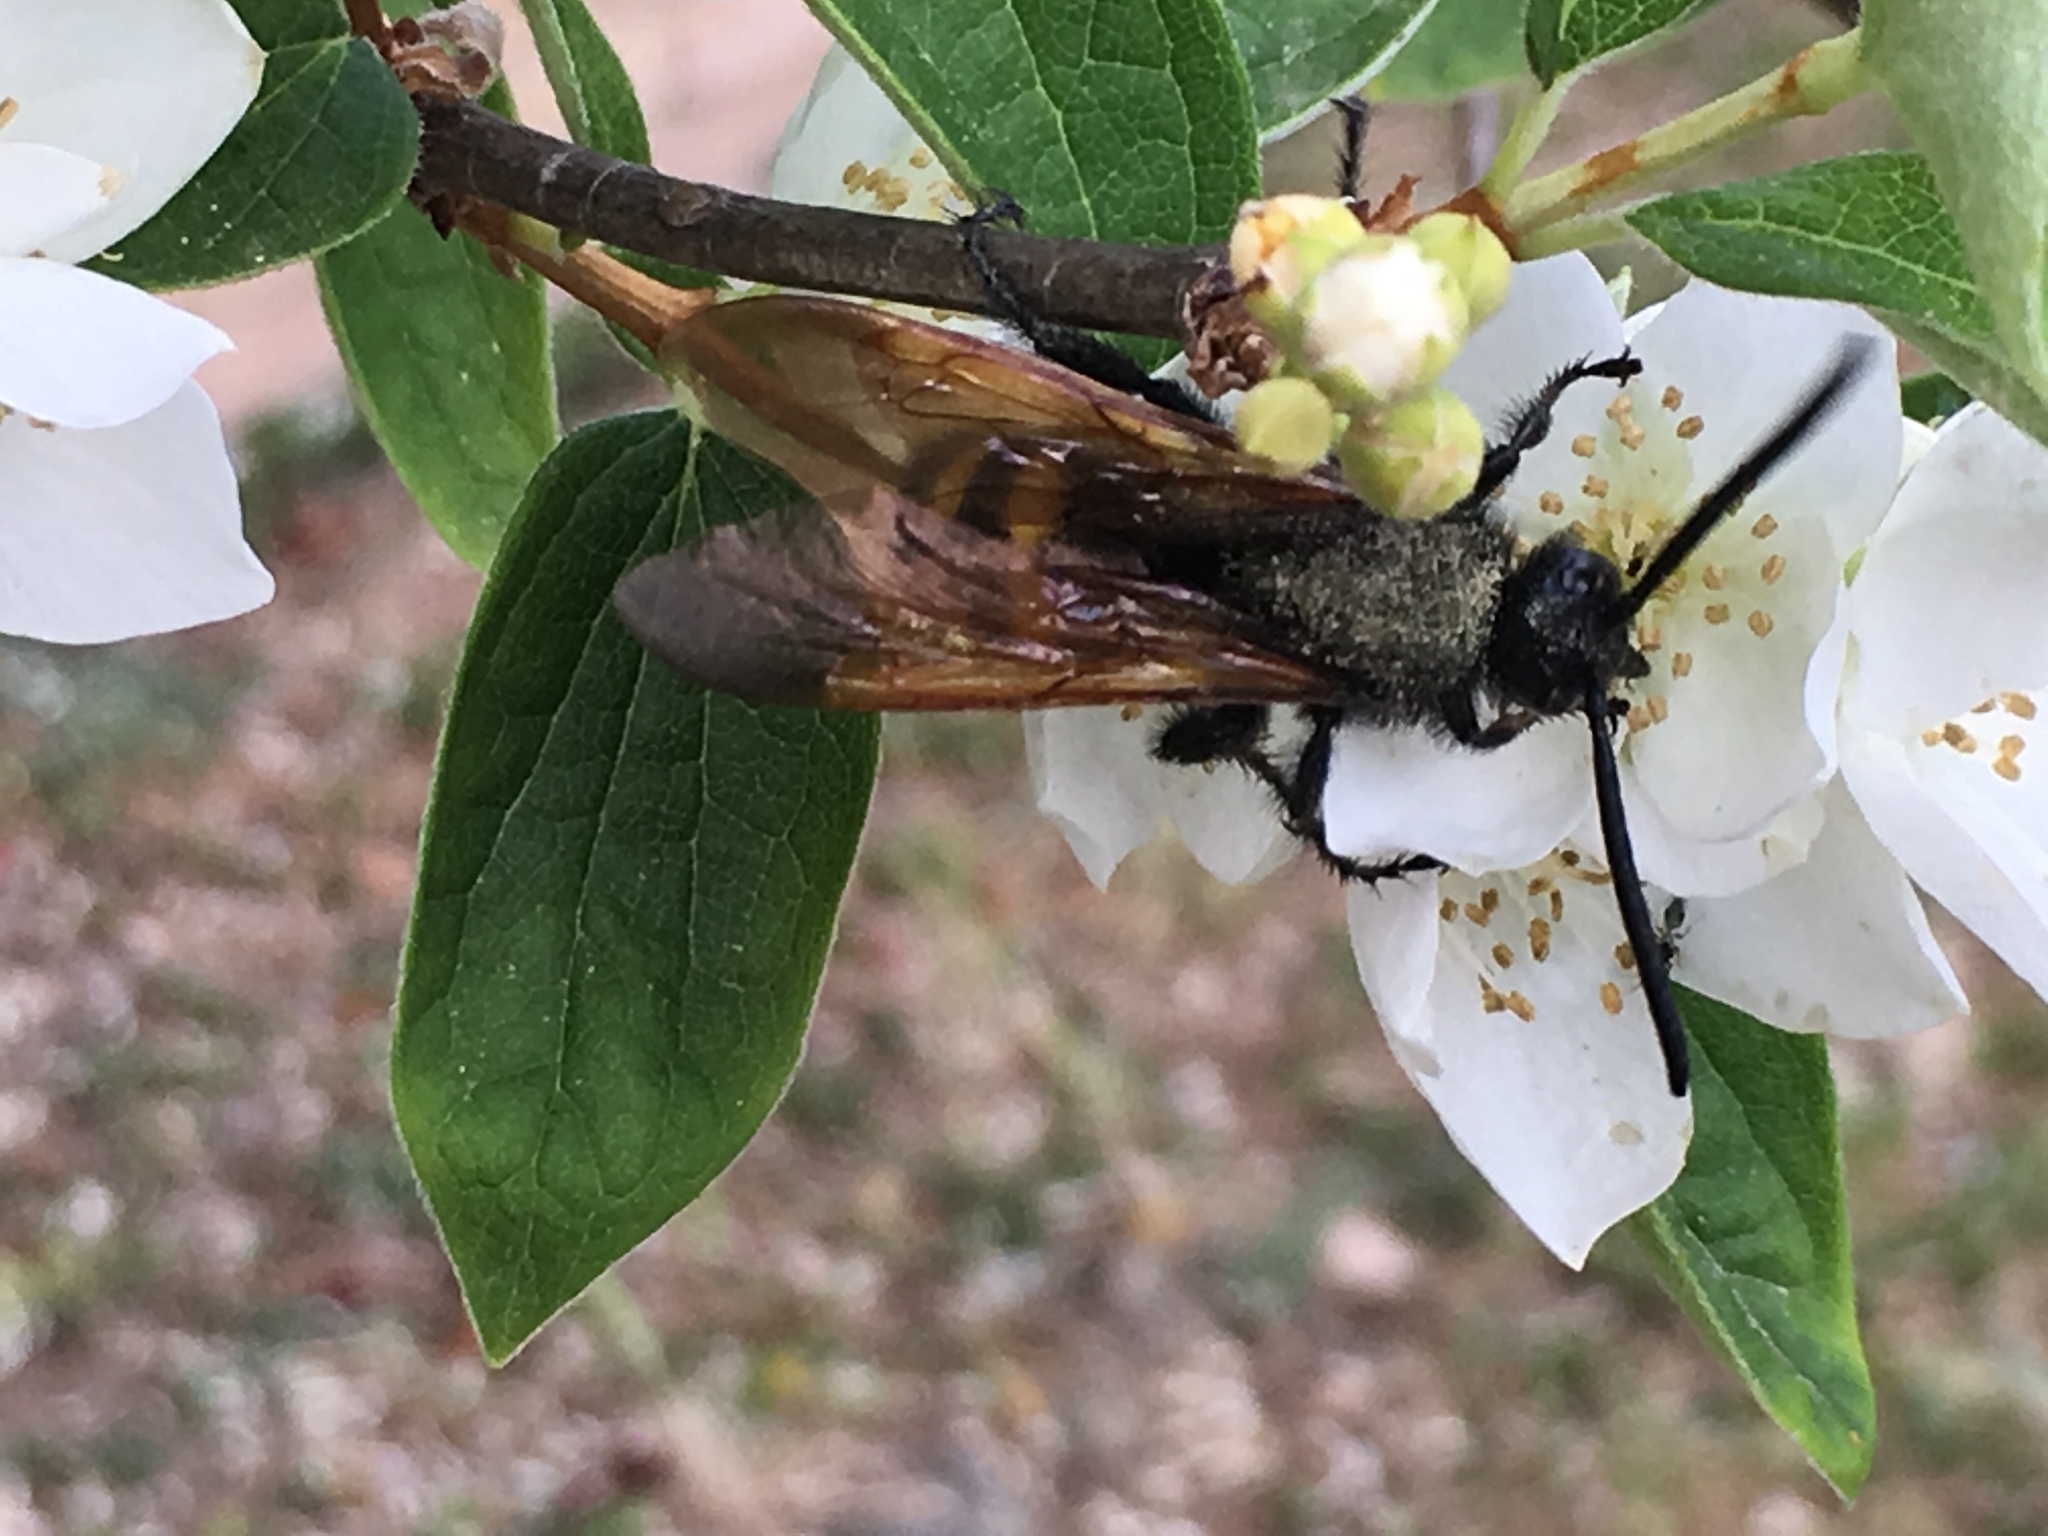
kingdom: Animalia
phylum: Arthropoda
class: Insecta
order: Hymenoptera
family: Scoliidae
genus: Megascolia
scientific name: Megascolia maculata
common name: Mammoth wasp
